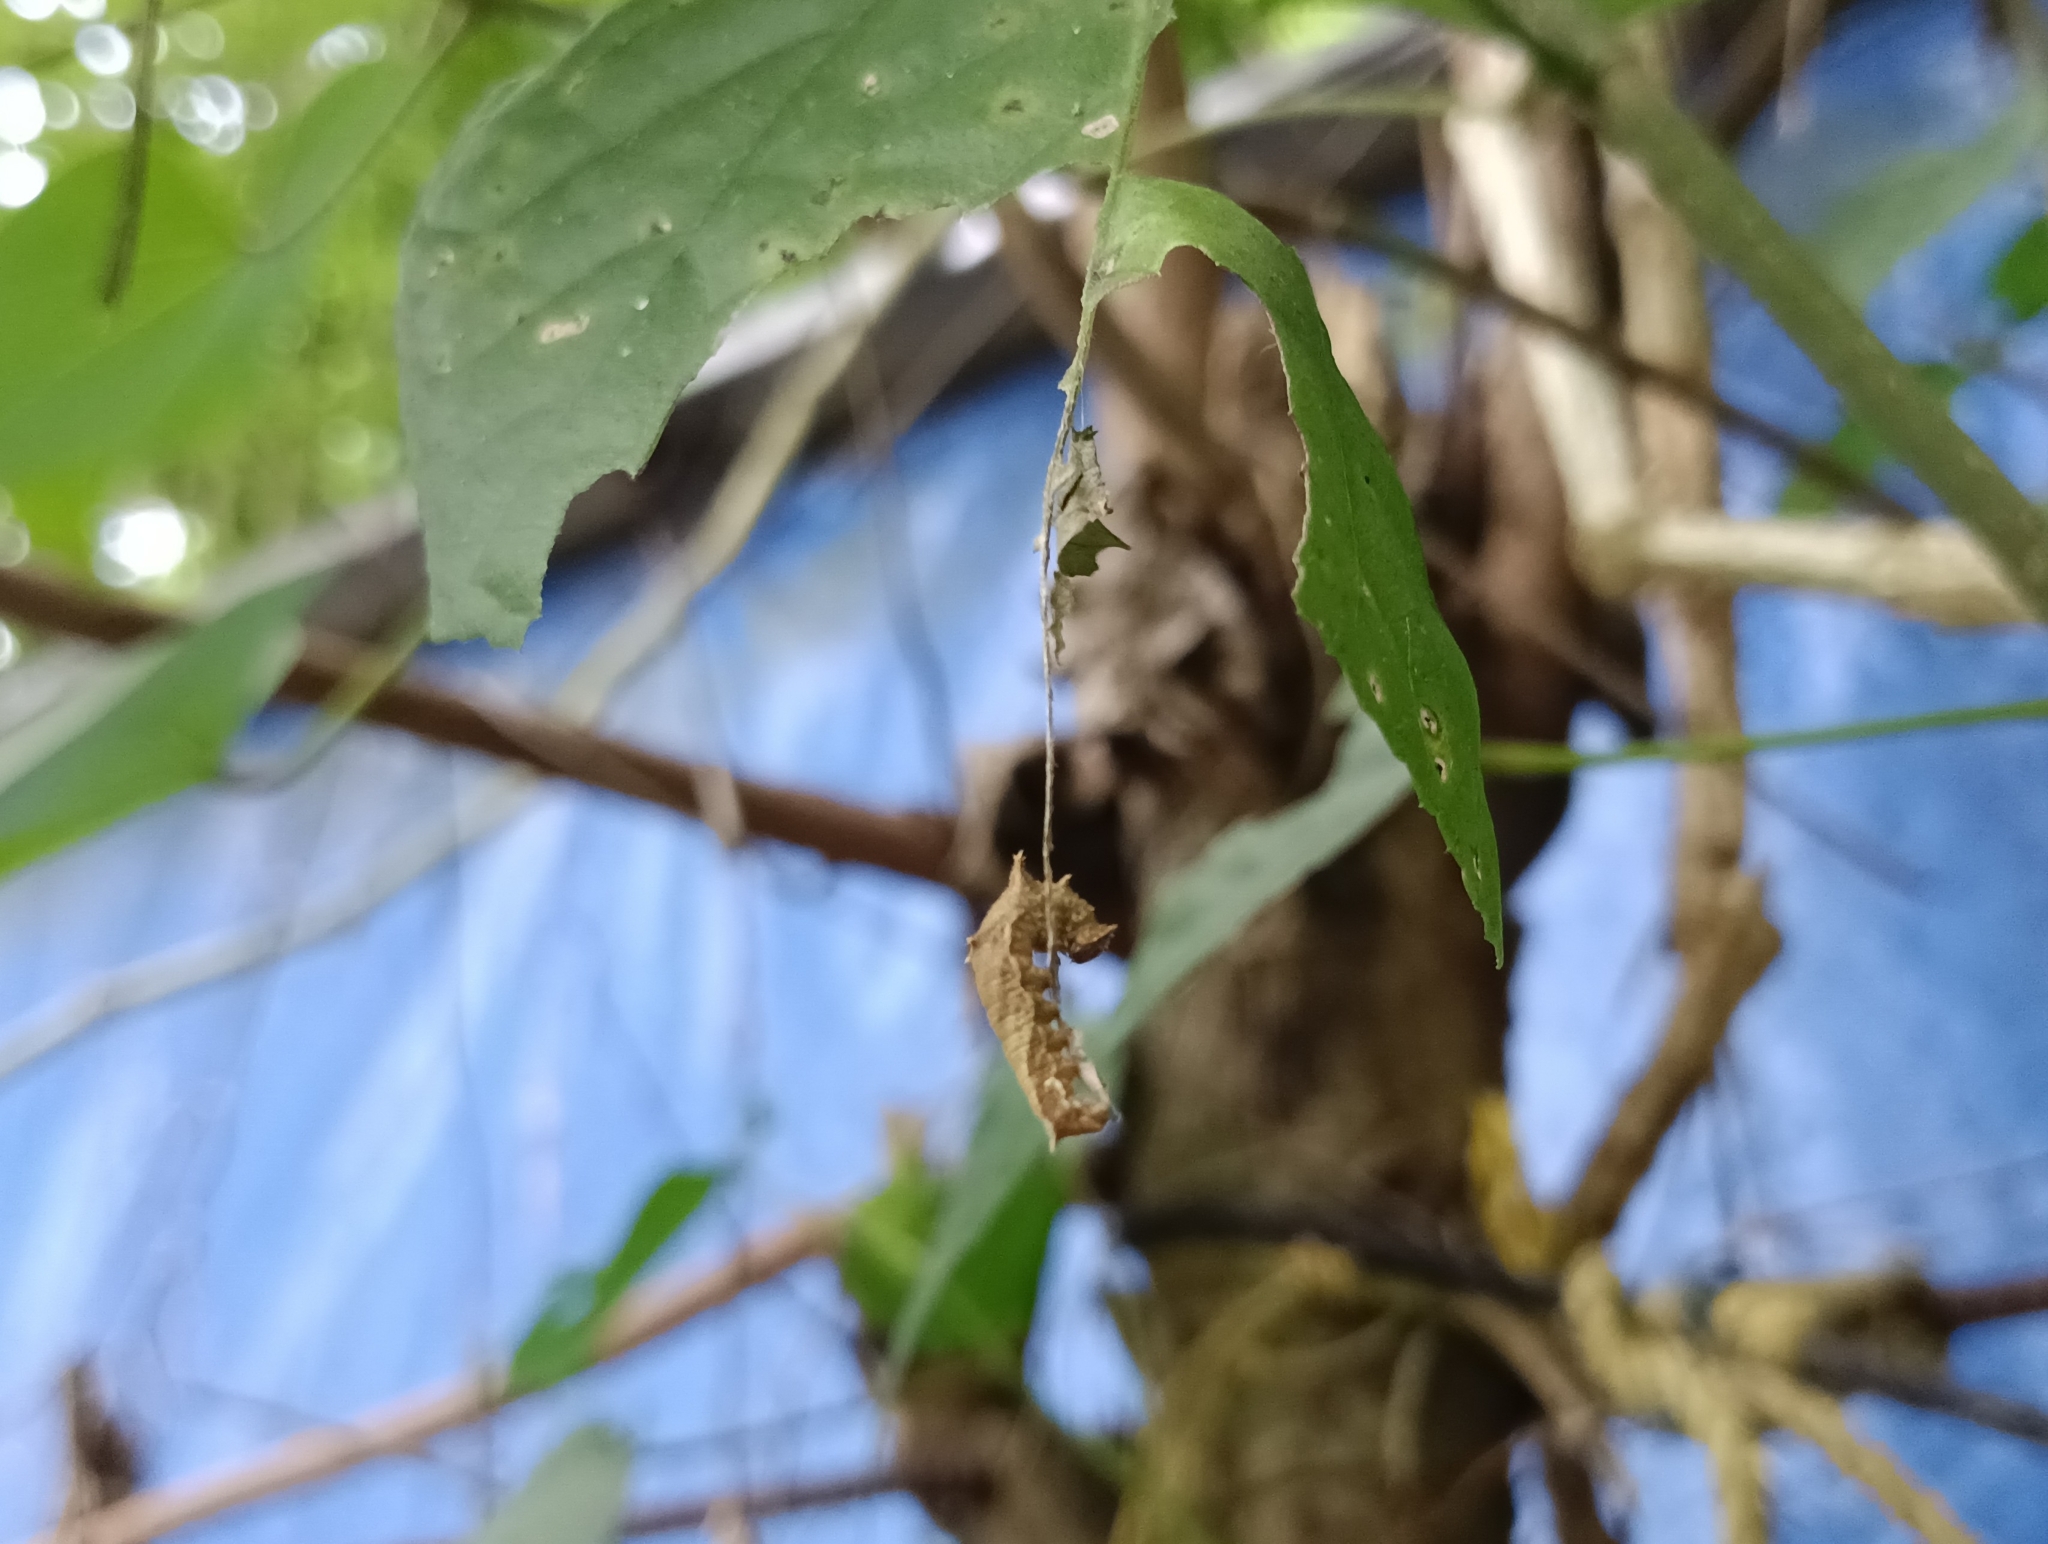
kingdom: Animalia
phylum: Arthropoda
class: Insecta
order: Lepidoptera
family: Nymphalidae
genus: Neptis
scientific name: Neptis jumbah
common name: Chestnut-streaked sailer
